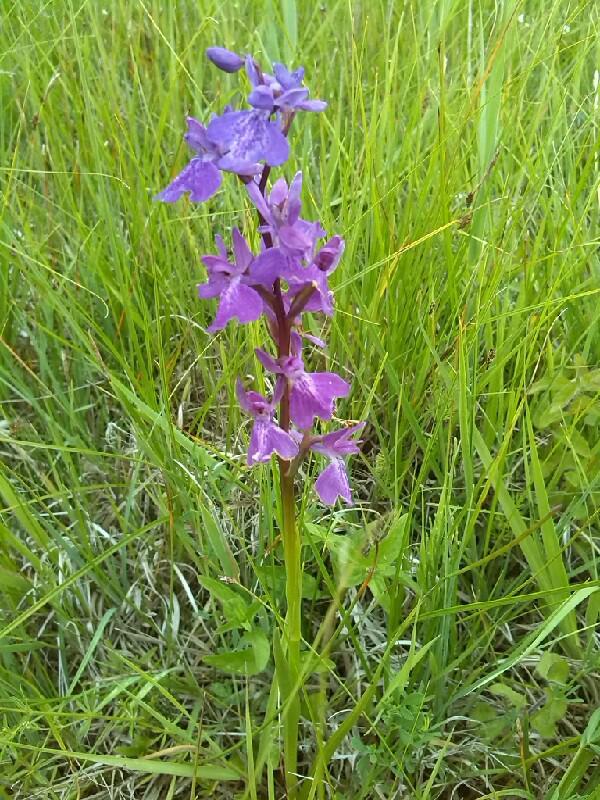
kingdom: Plantae
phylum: Tracheophyta
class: Liliopsida
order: Asparagales
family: Orchidaceae
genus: Anacamptis
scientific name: Anacamptis palustris
